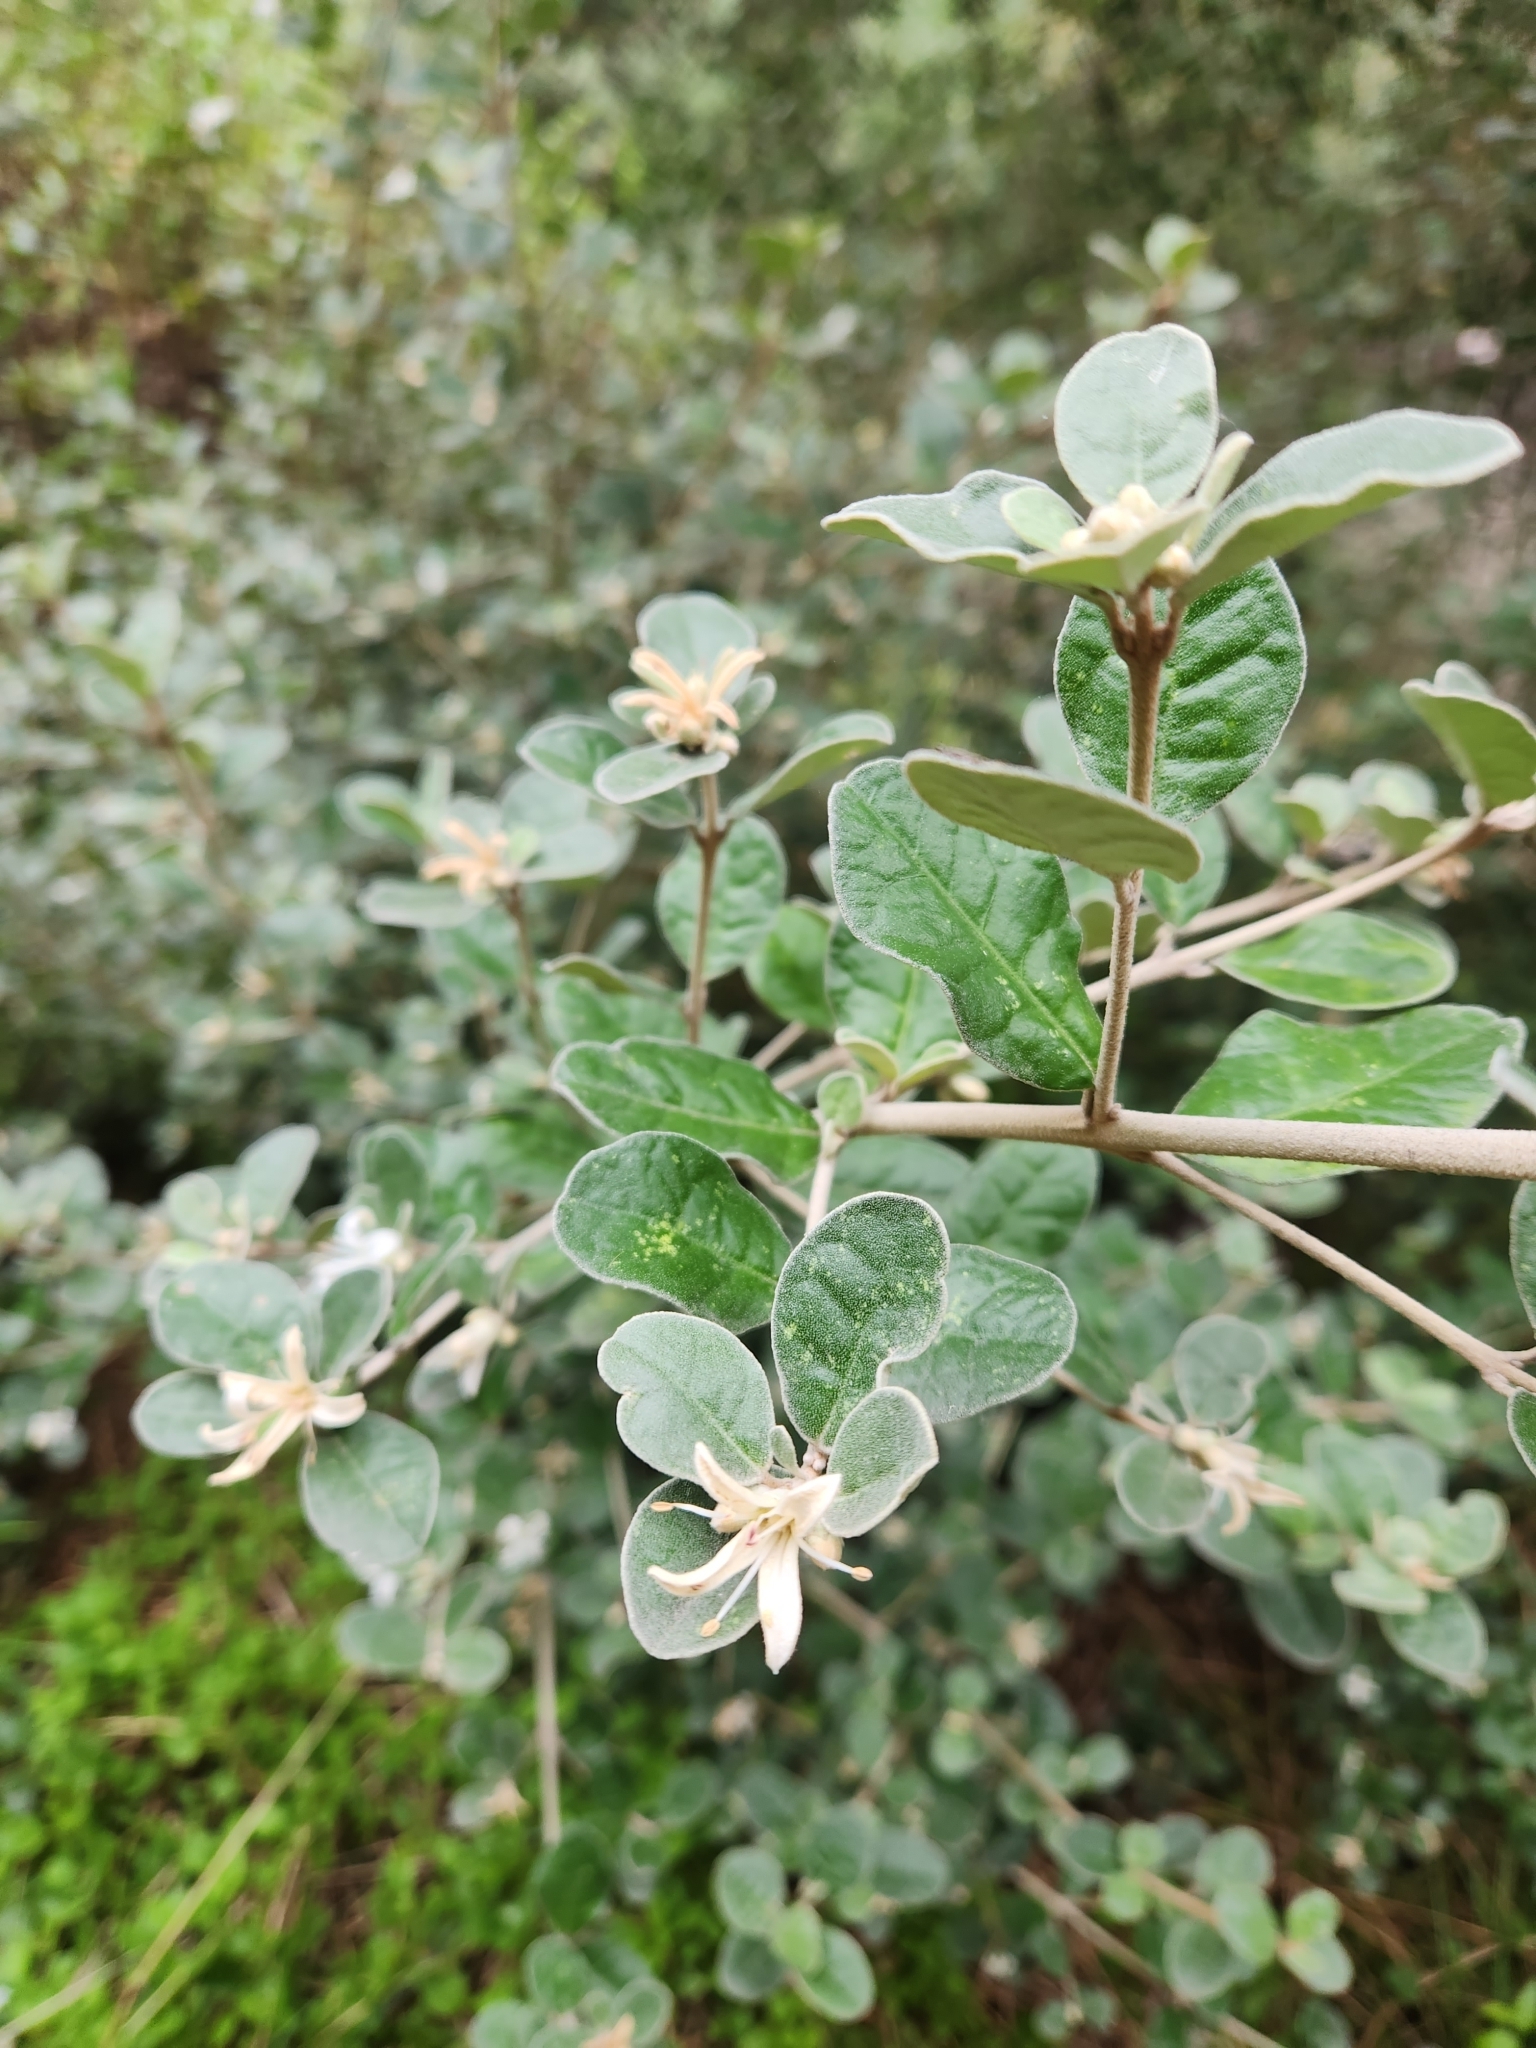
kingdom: Plantae
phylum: Tracheophyta
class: Magnoliopsida
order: Sapindales
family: Rutaceae
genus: Correa
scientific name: Correa alba
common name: White correa
